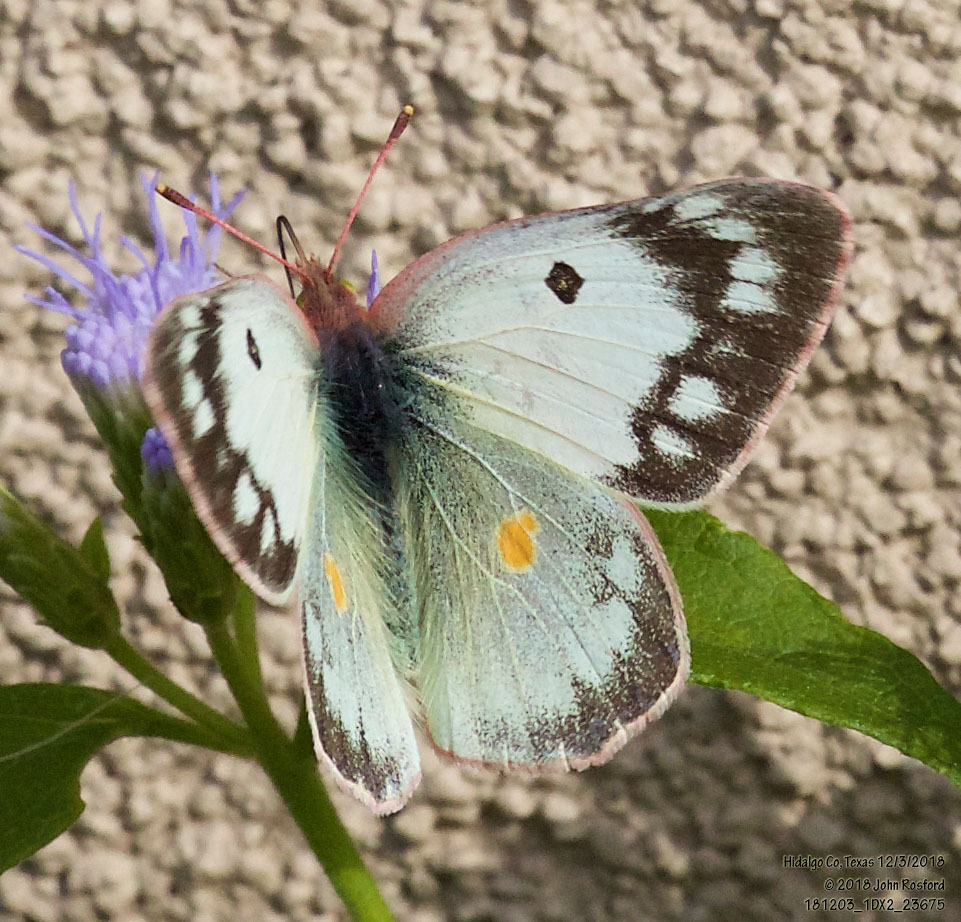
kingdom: Animalia
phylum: Arthropoda
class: Insecta
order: Lepidoptera
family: Pieridae
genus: Colias
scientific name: Colias eurytheme
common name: Alfalfa butterfly
